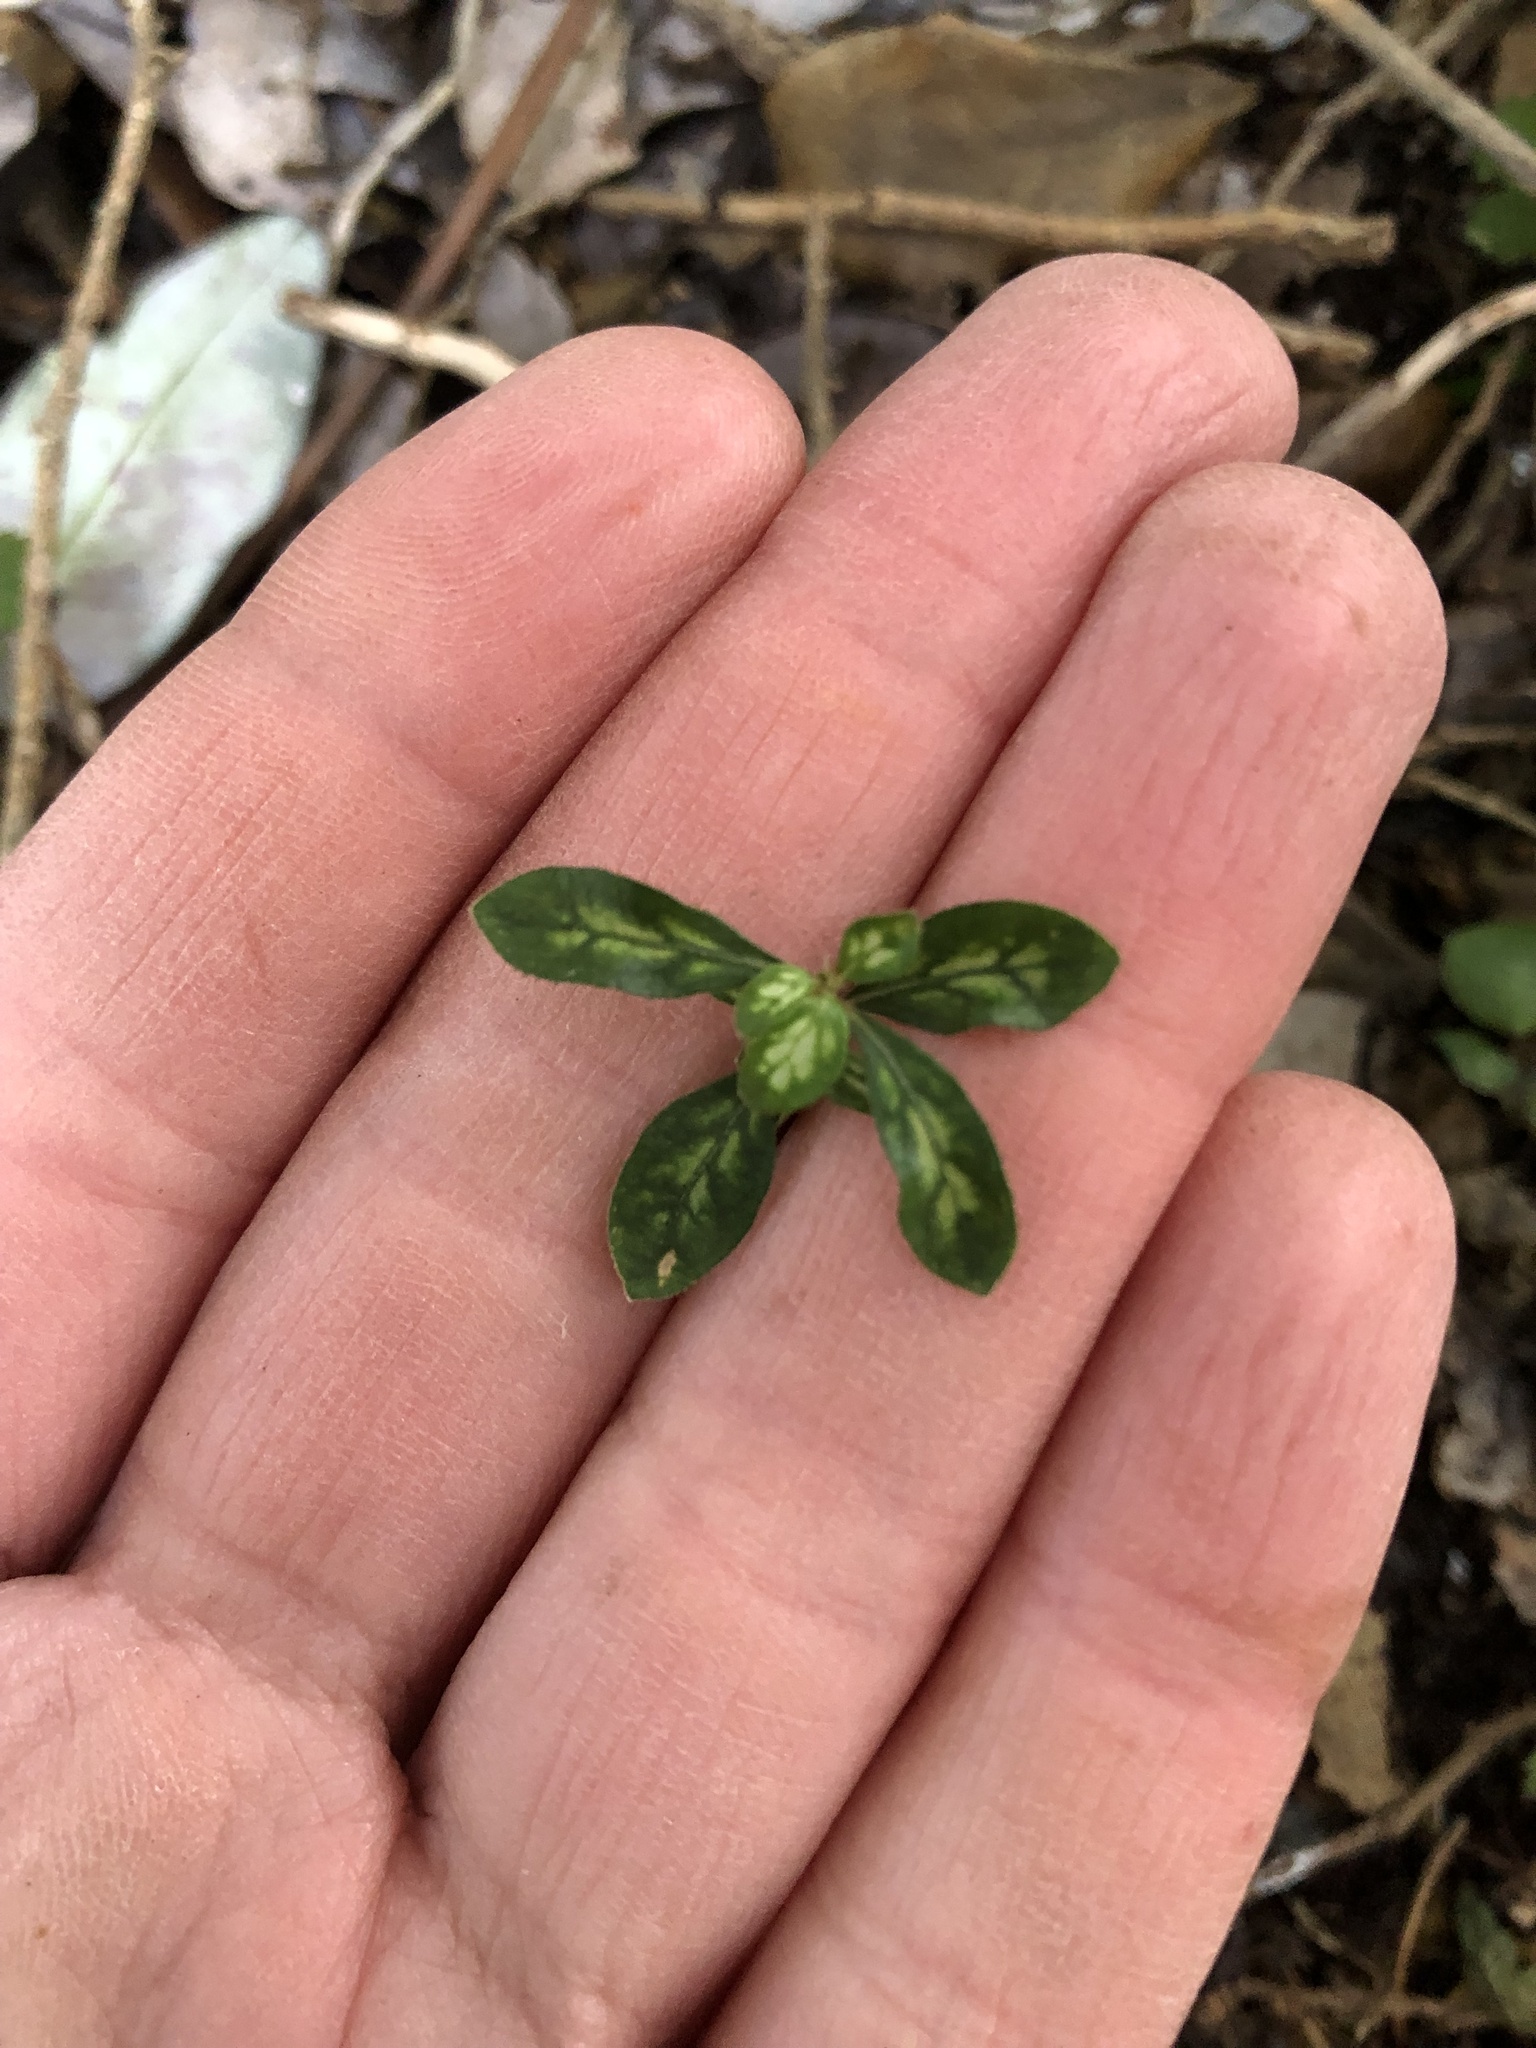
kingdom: Plantae
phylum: Tracheophyta
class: Magnoliopsida
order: Gentianales
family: Rubiaceae
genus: Coprosma
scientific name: Coprosma dumosa
